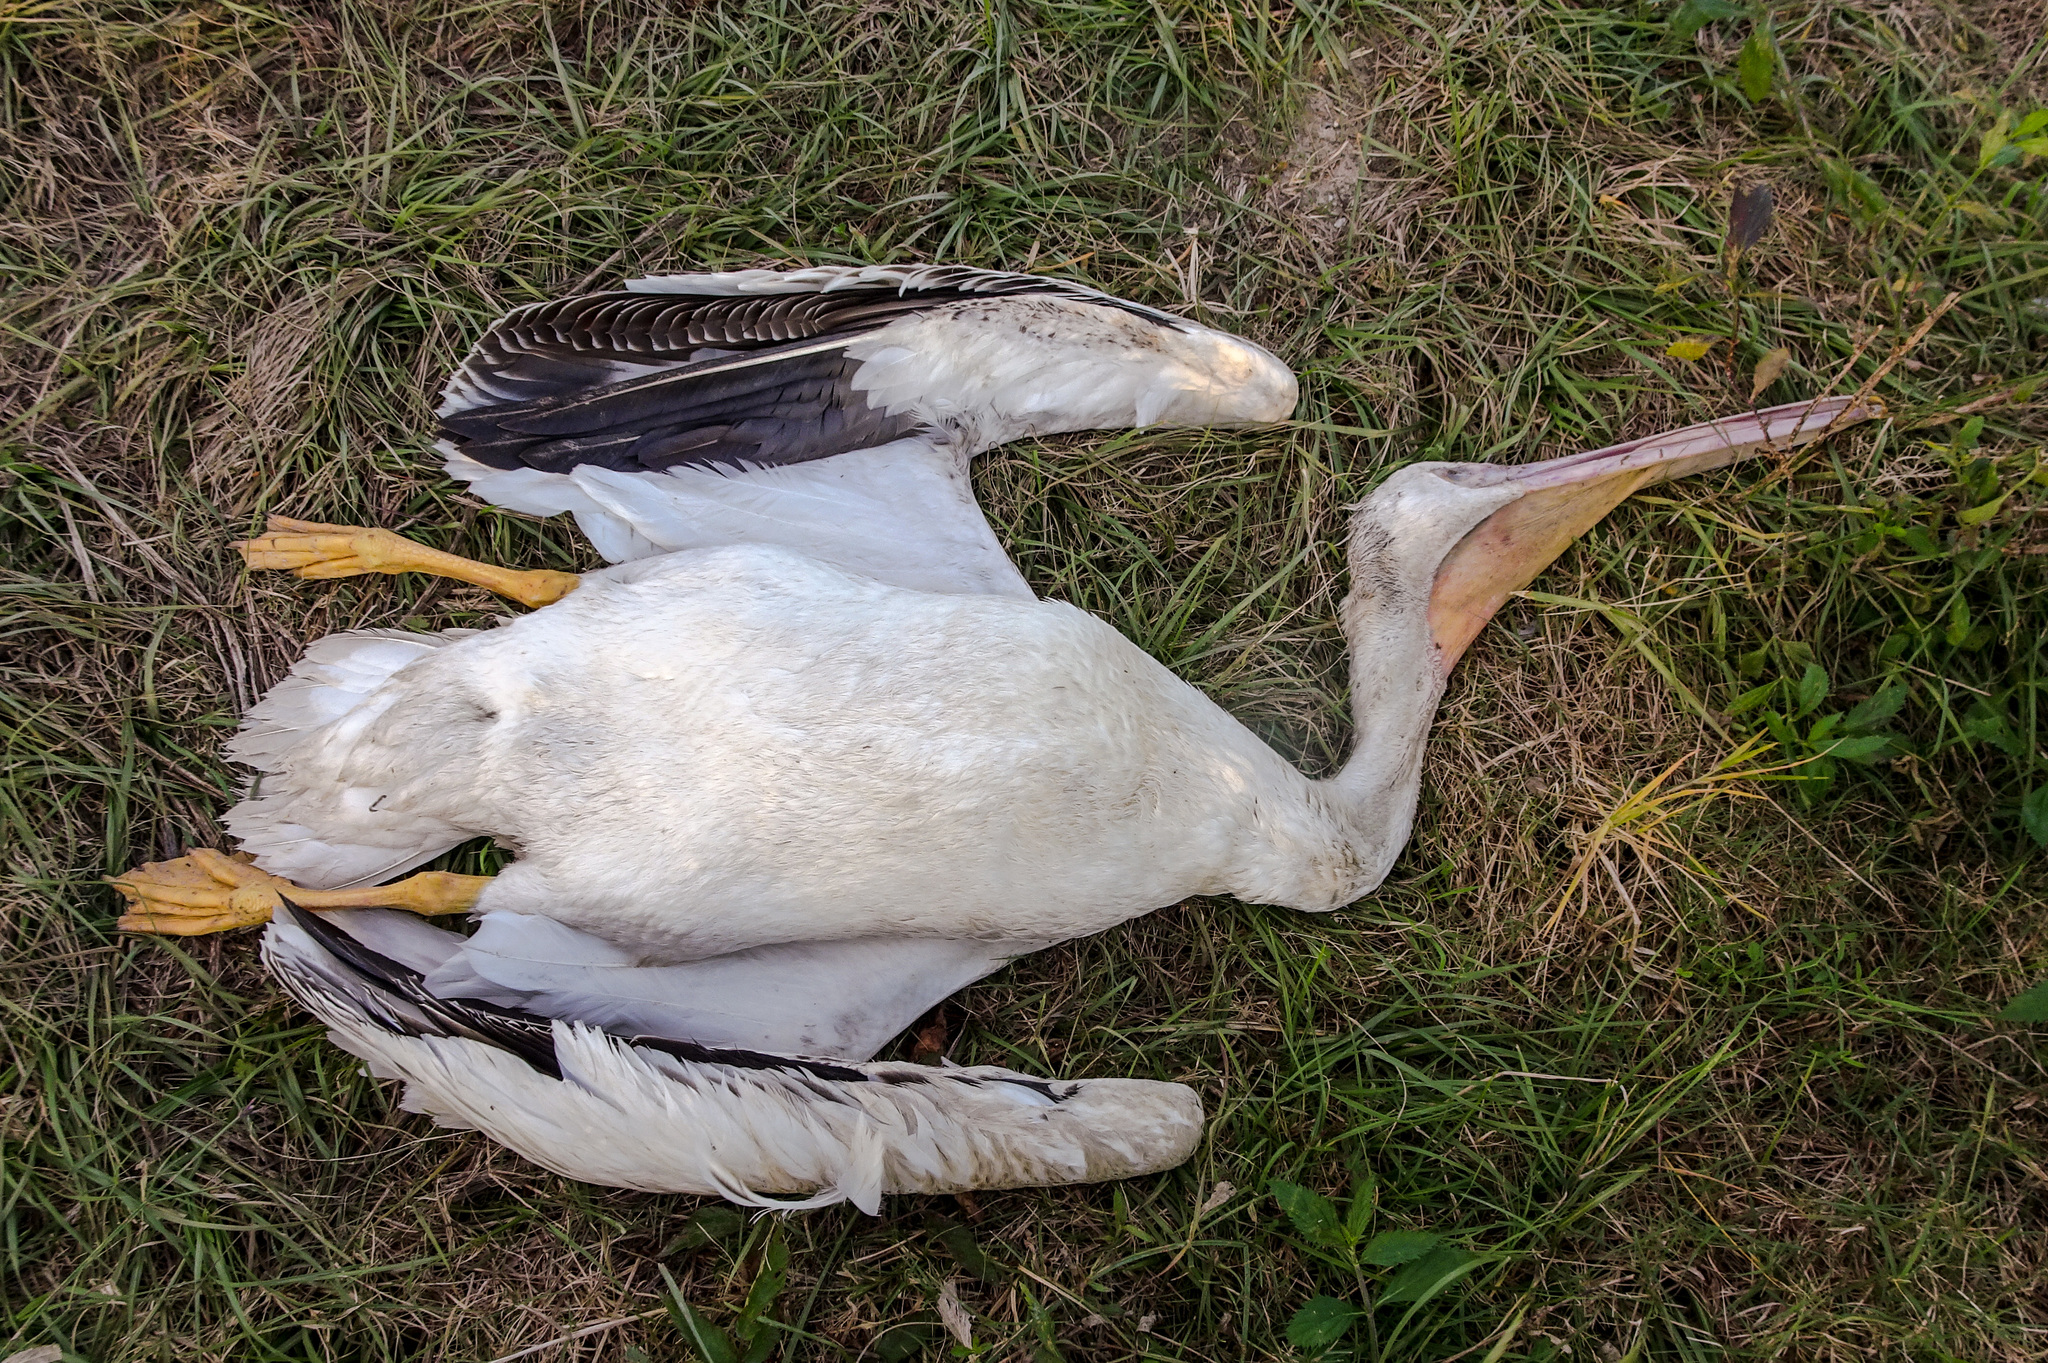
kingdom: Animalia
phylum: Chordata
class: Aves
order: Pelecaniformes
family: Pelecanidae
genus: Pelecanus
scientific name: Pelecanus erythrorhynchos
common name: American white pelican
